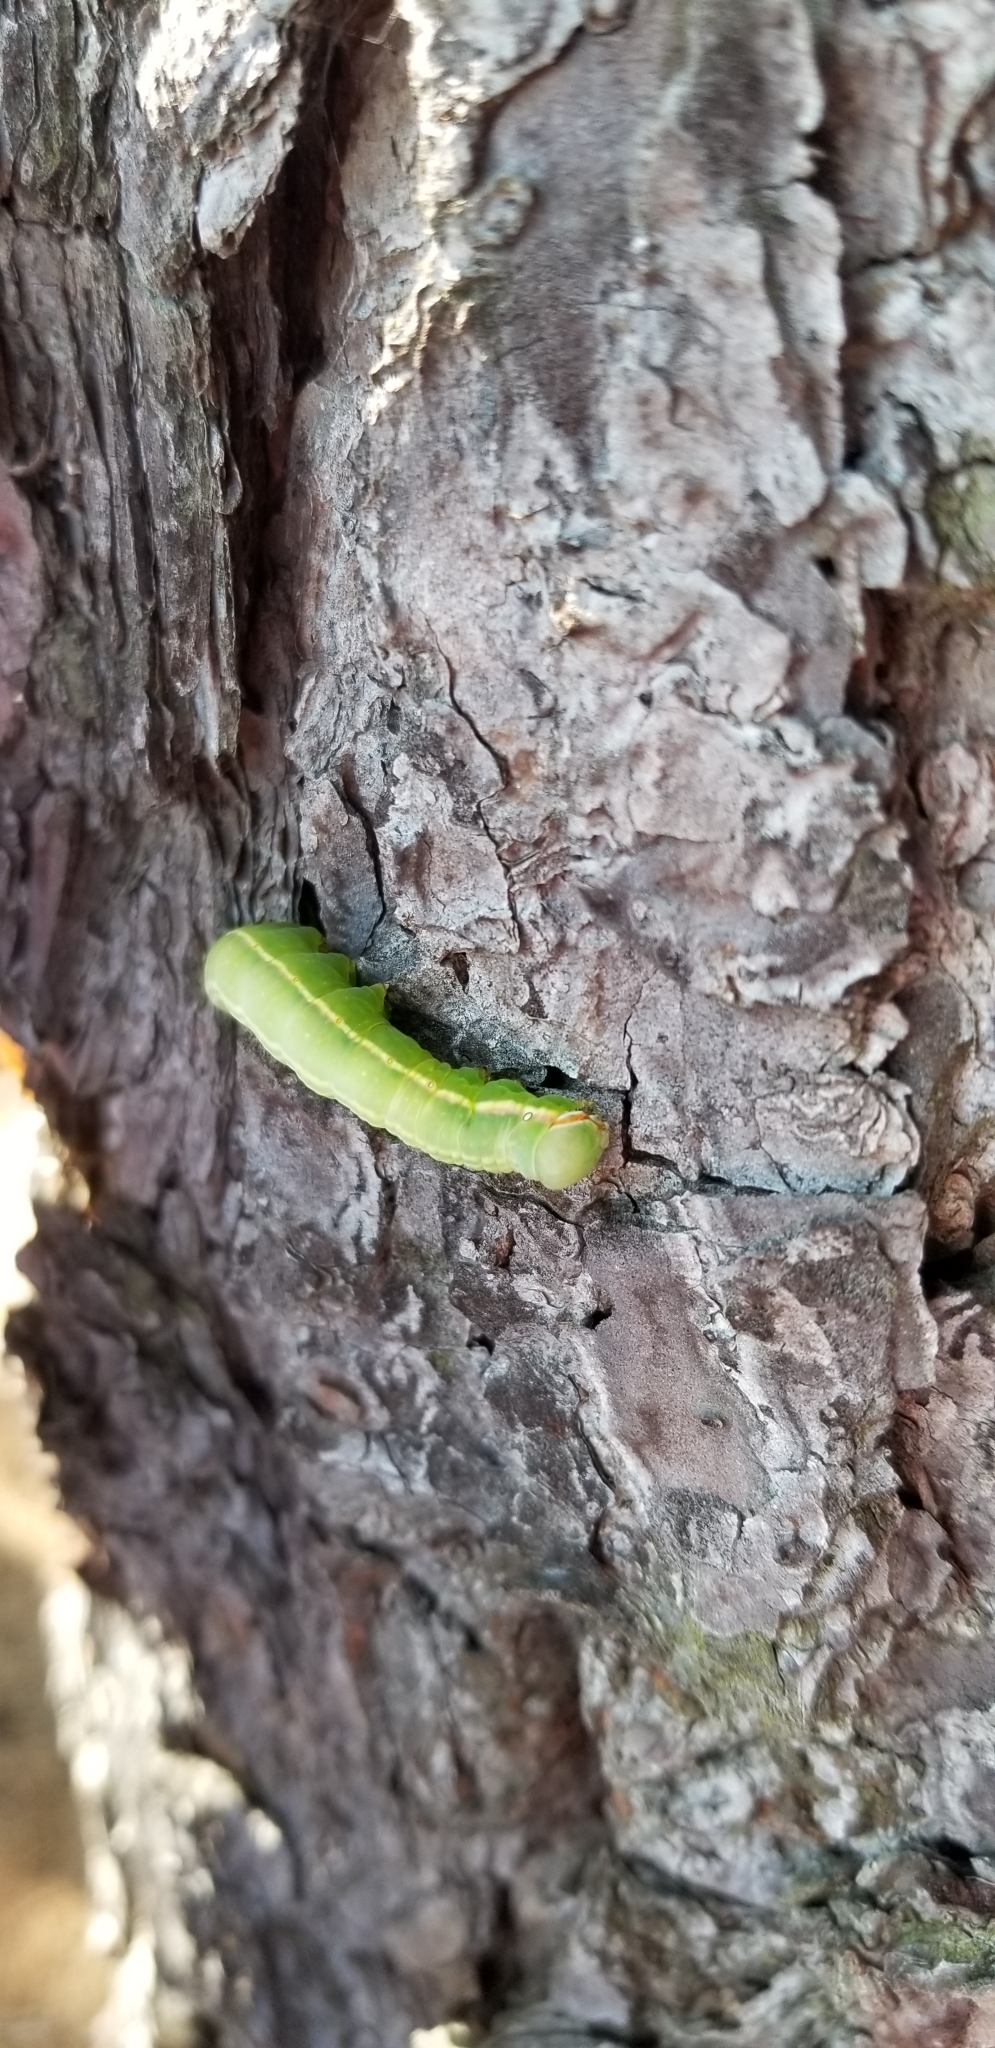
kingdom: Animalia
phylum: Arthropoda
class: Insecta
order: Lepidoptera
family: Notodontidae
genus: Peridea
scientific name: Peridea angulosa
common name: Angulose prominent
